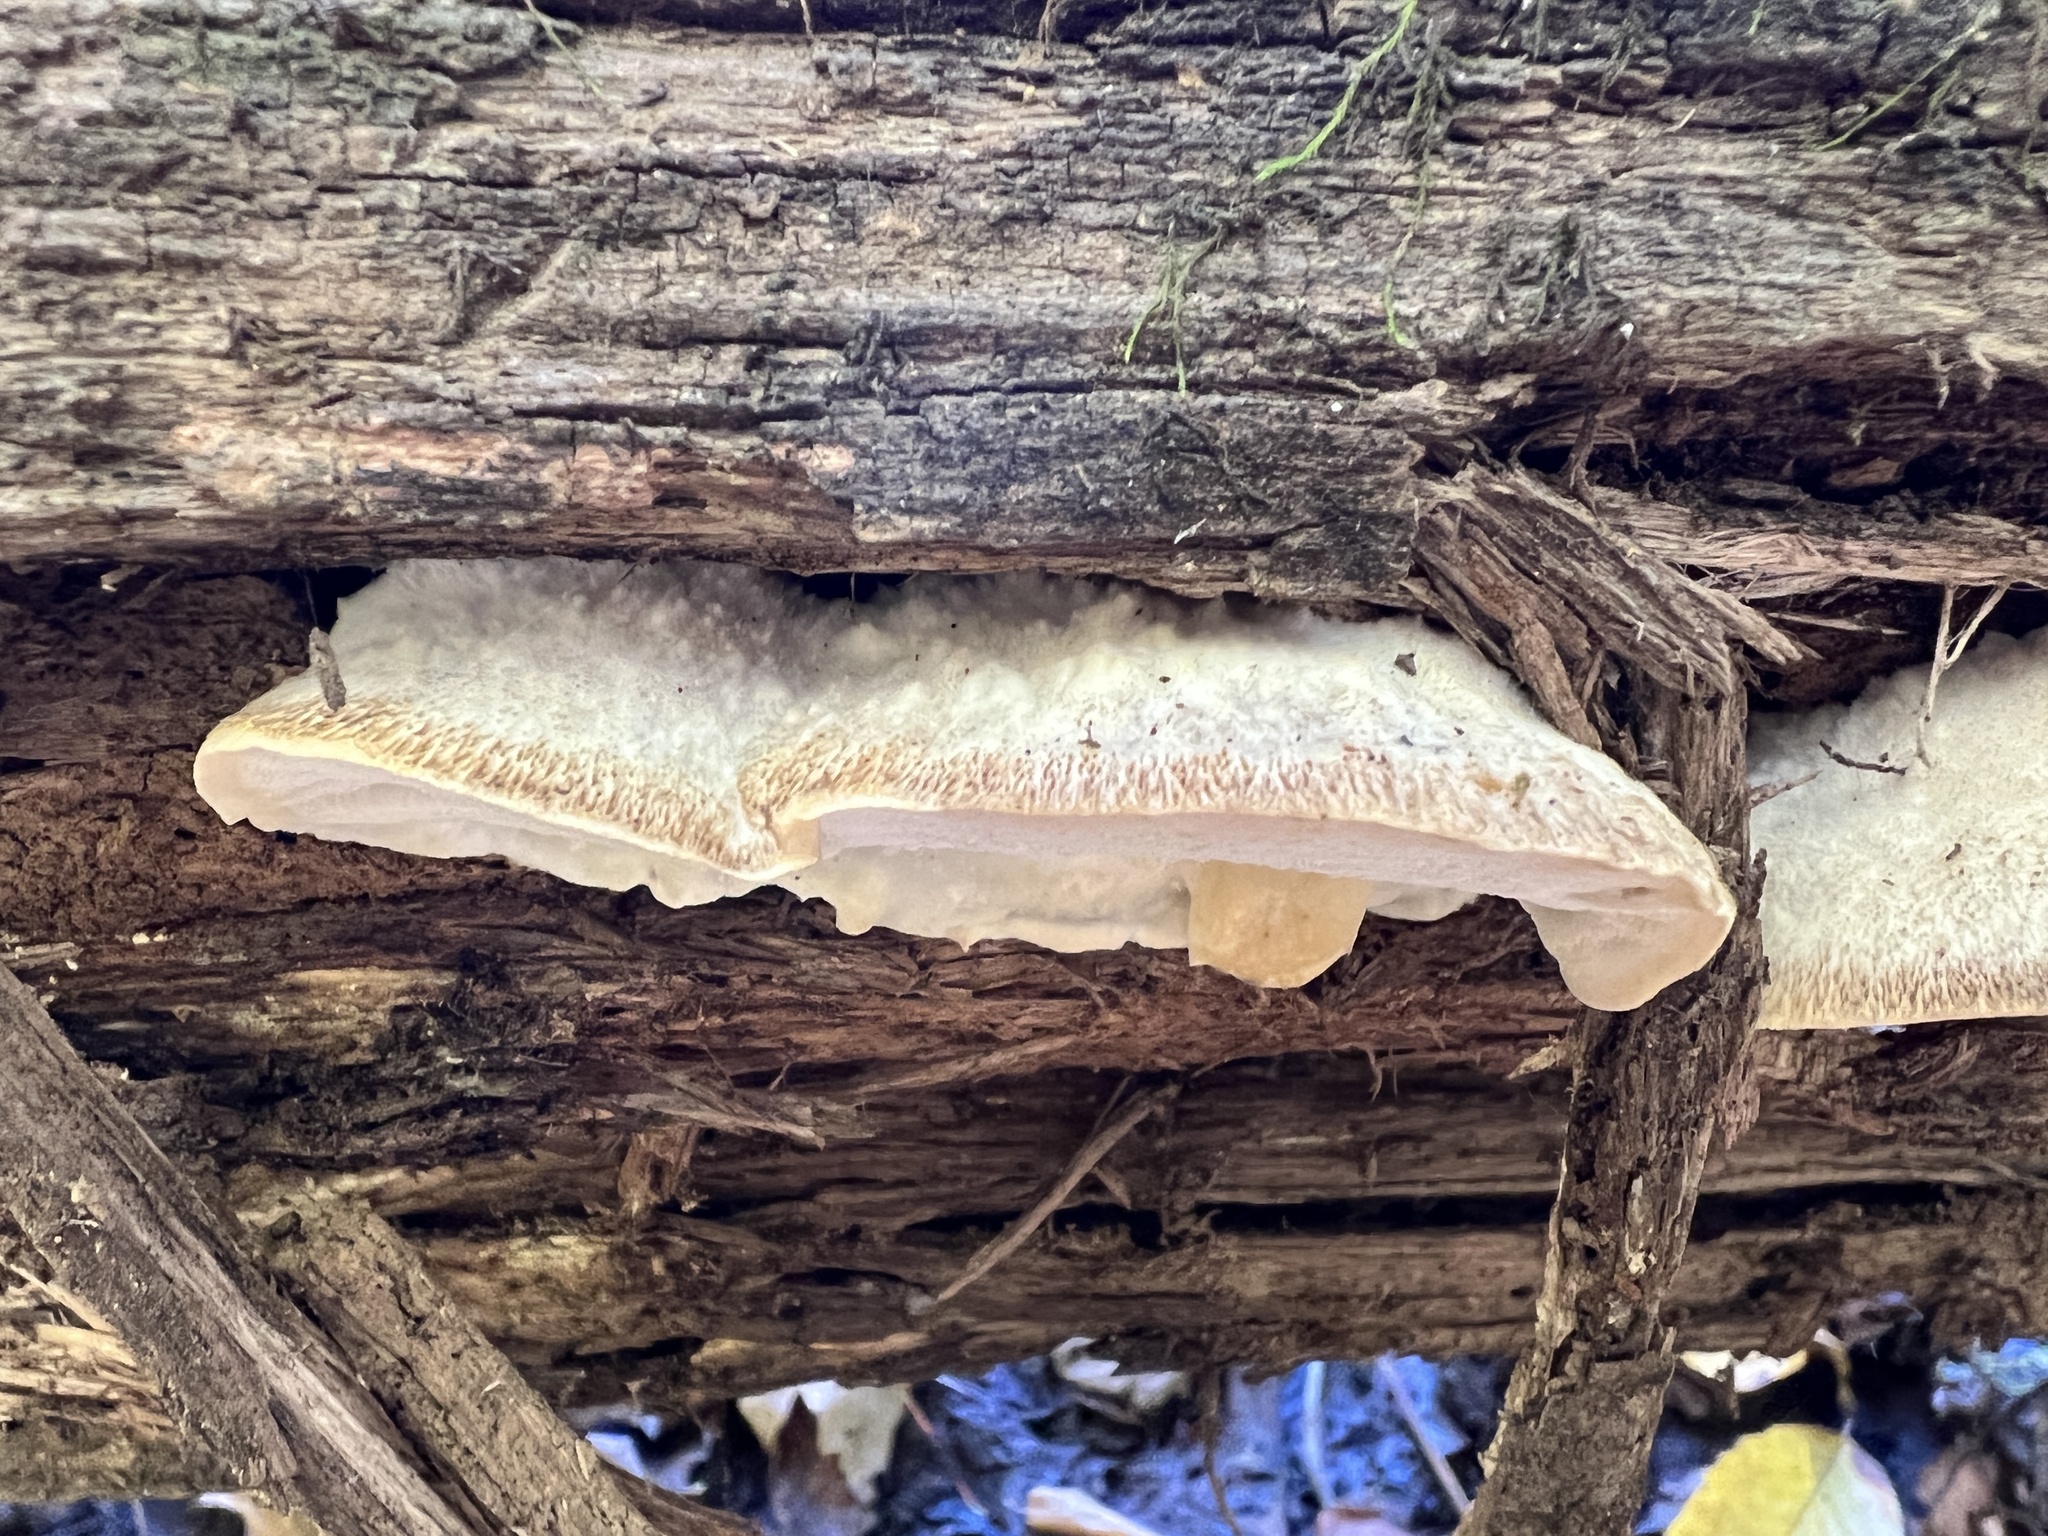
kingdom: Fungi
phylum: Basidiomycota
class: Agaricomycetes
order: Polyporales
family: Incrustoporiaceae
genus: Tyromyces
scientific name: Tyromyces galactinus
